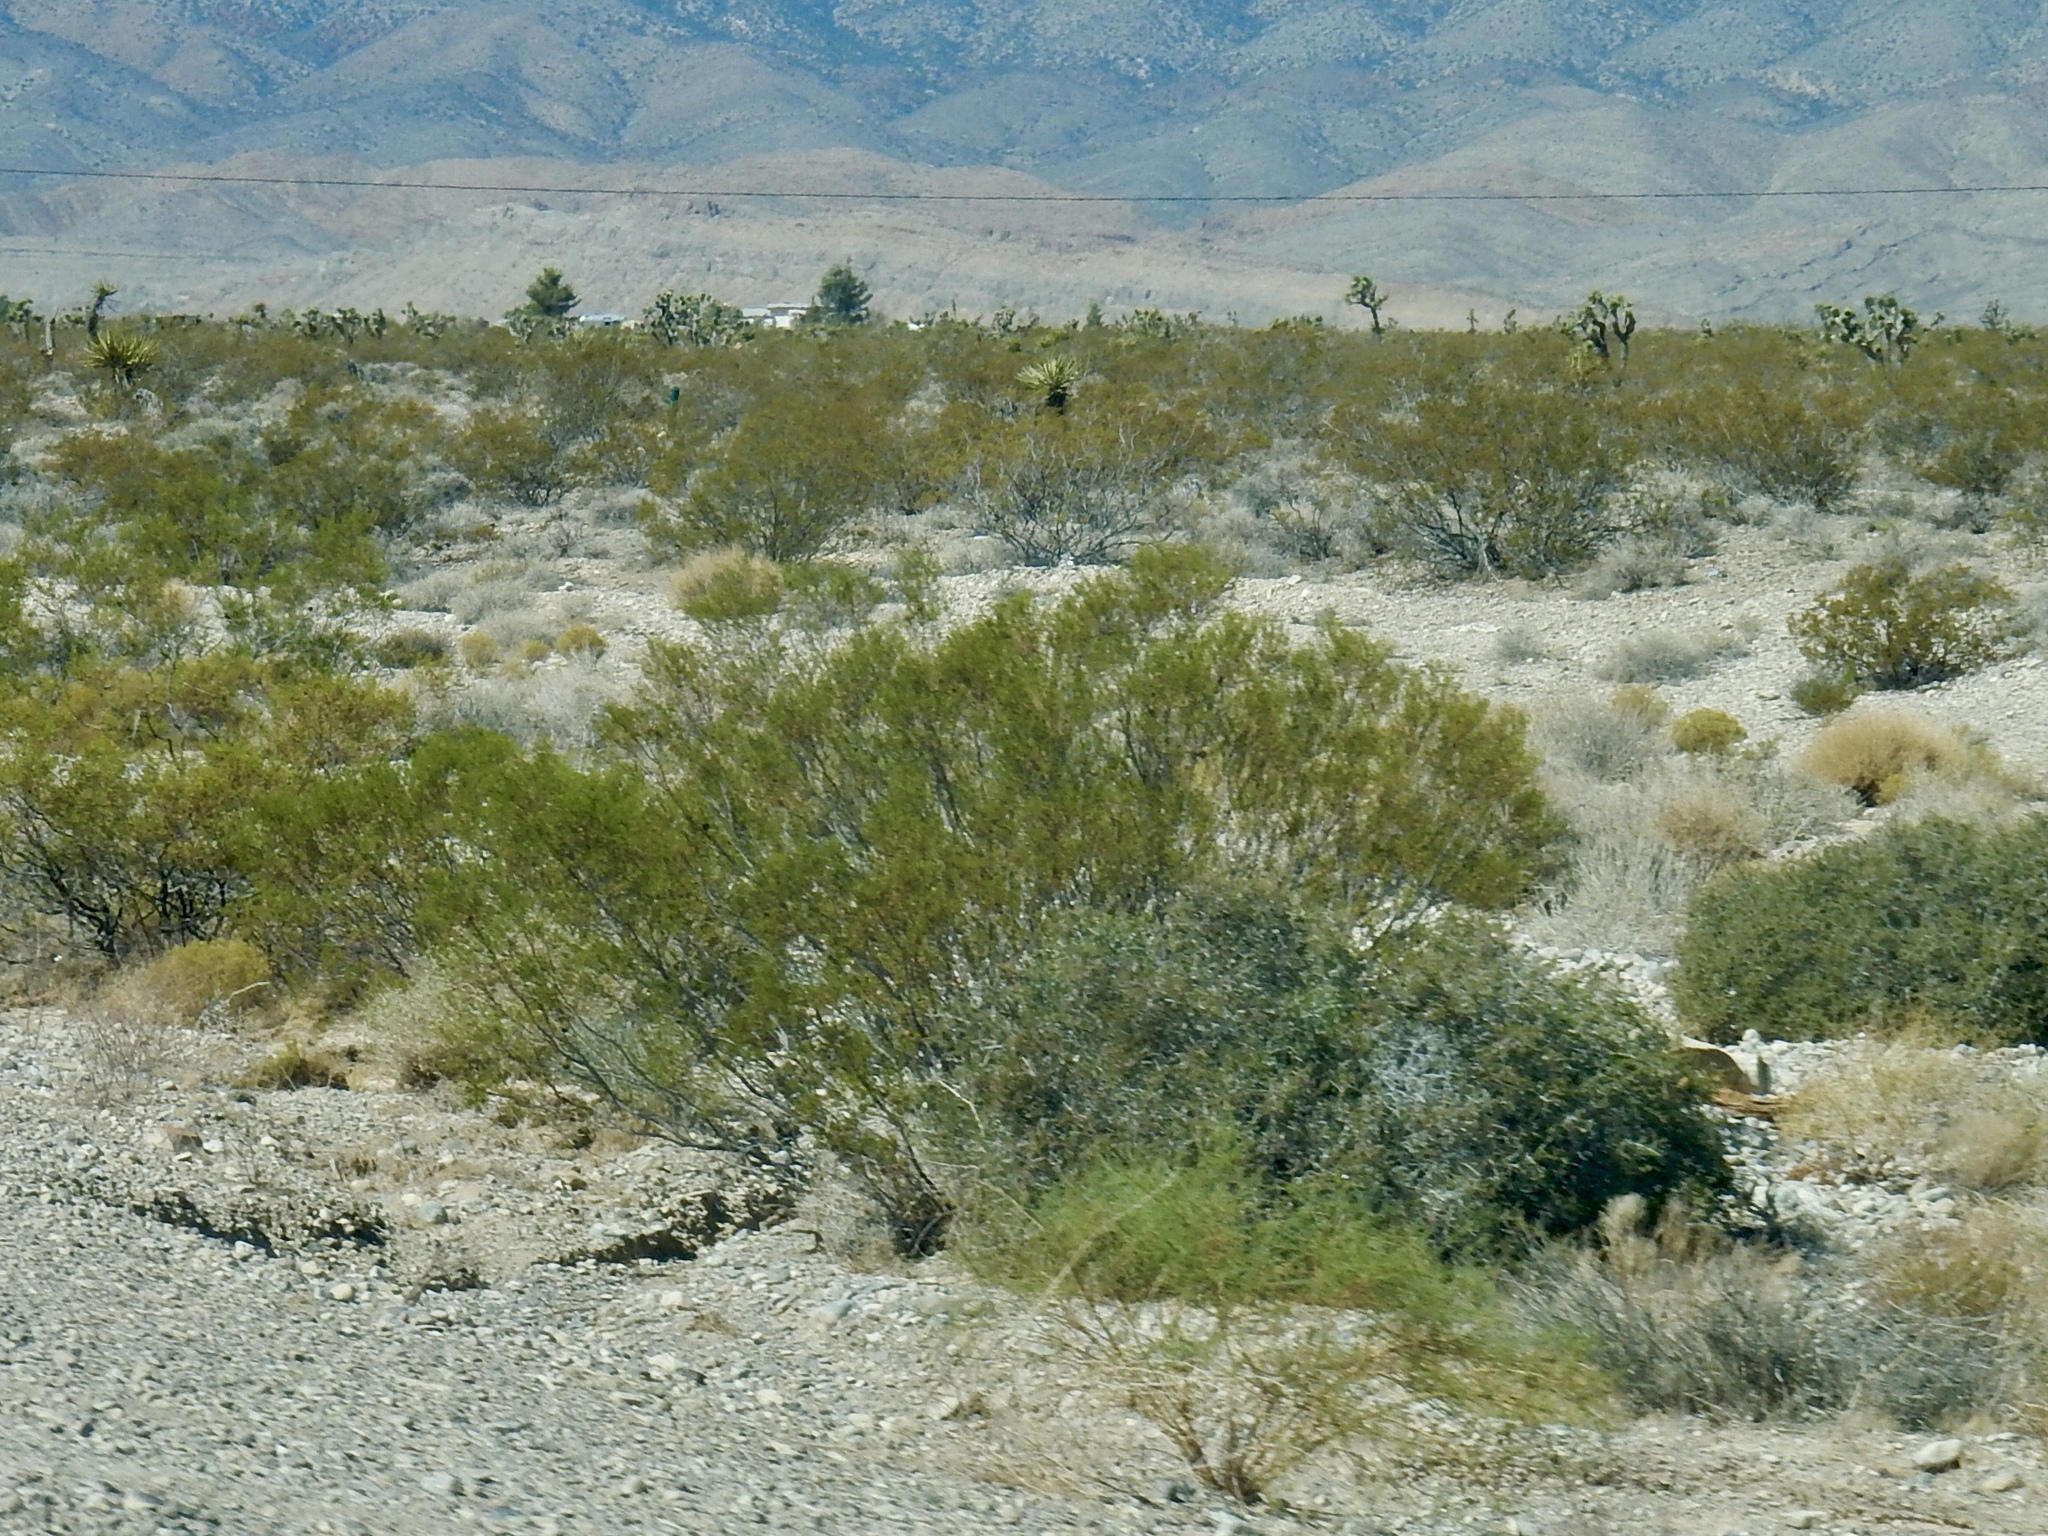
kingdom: Plantae
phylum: Tracheophyta
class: Magnoliopsida
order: Zygophyllales
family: Zygophyllaceae
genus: Larrea
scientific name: Larrea tridentata
